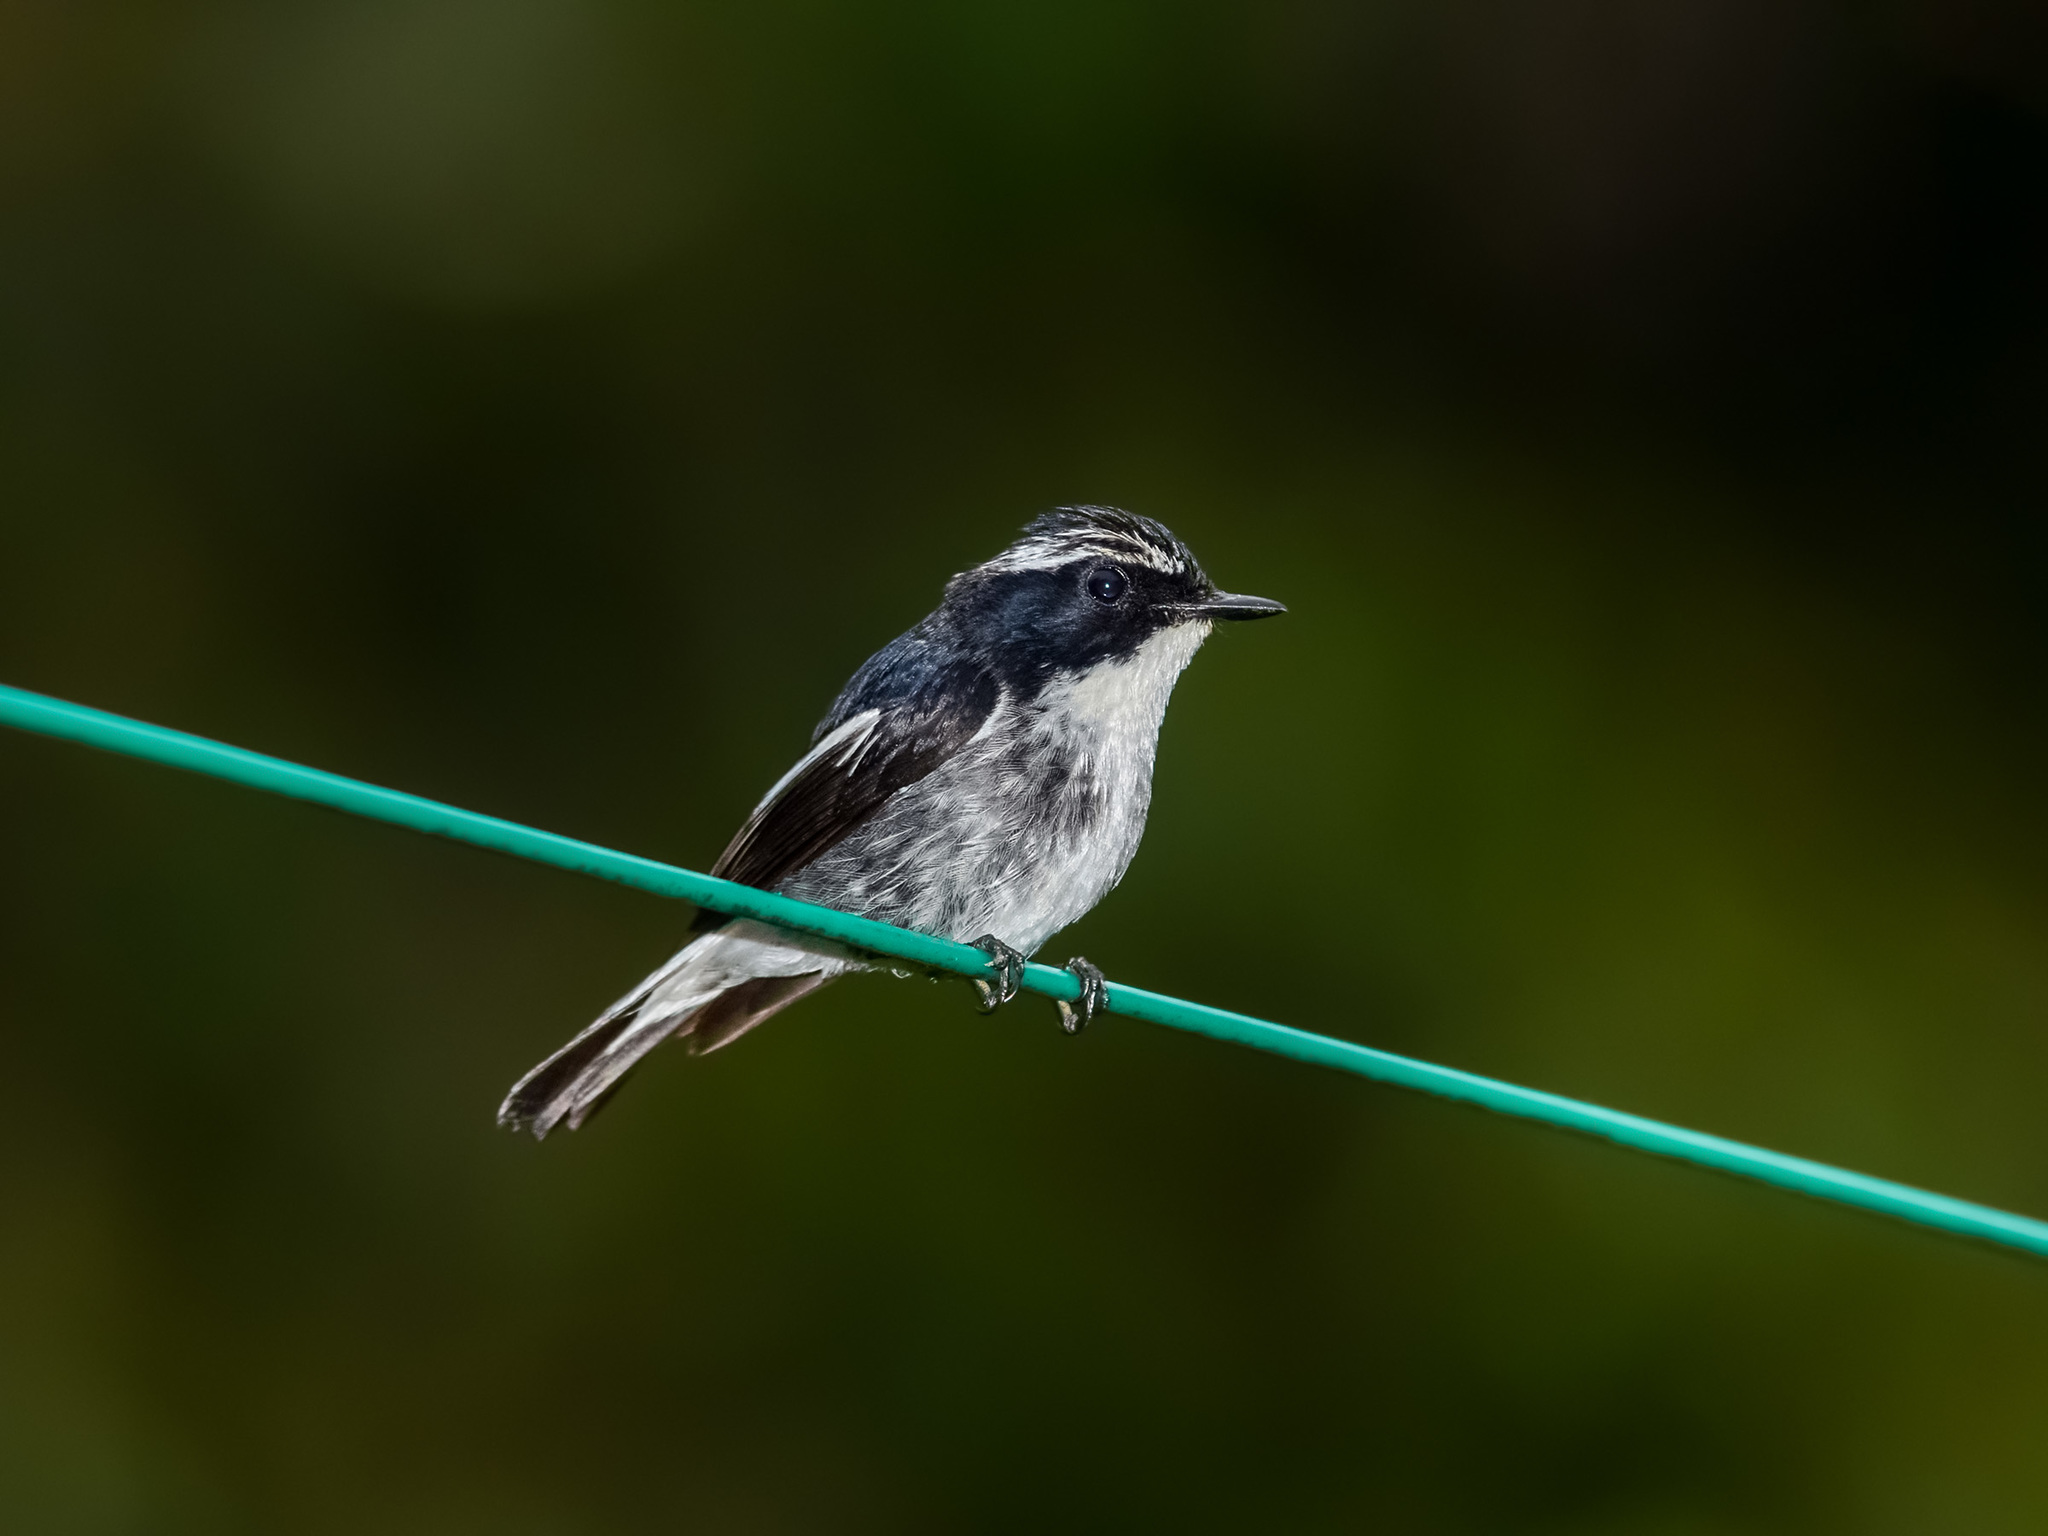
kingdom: Animalia
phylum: Chordata
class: Aves
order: Passeriformes
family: Muscicapidae
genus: Ficedula
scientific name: Ficedula westermanni
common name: Little pied flycatcher
